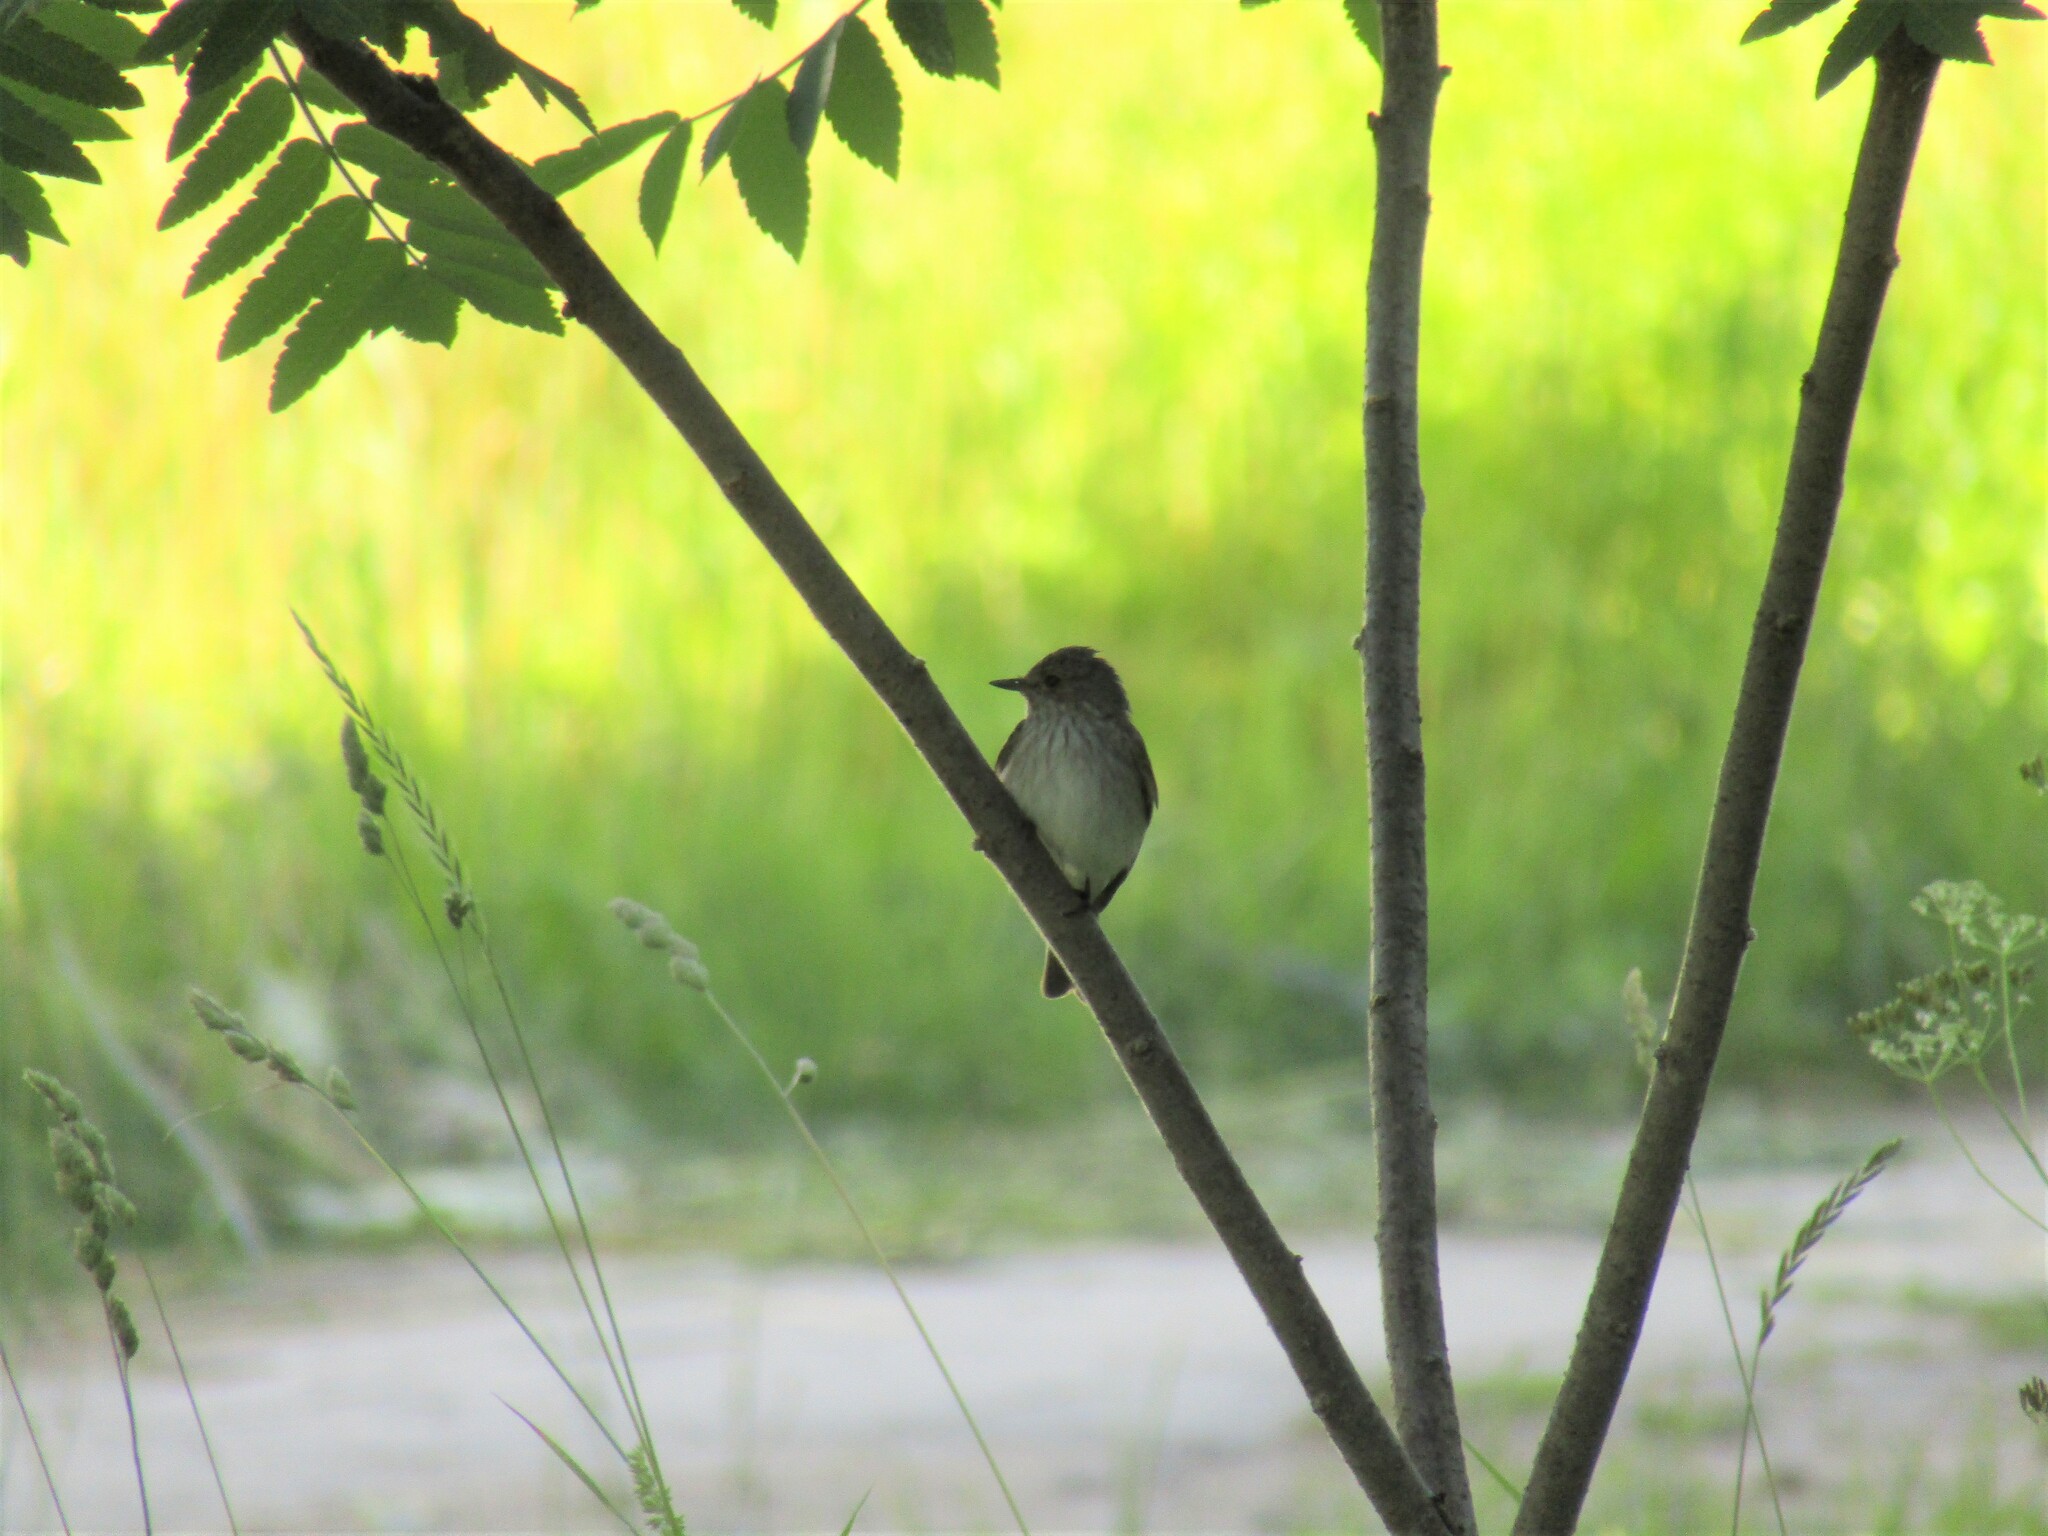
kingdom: Animalia
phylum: Chordata
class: Aves
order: Passeriformes
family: Muscicapidae
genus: Muscicapa
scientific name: Muscicapa striata
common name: Spotted flycatcher
